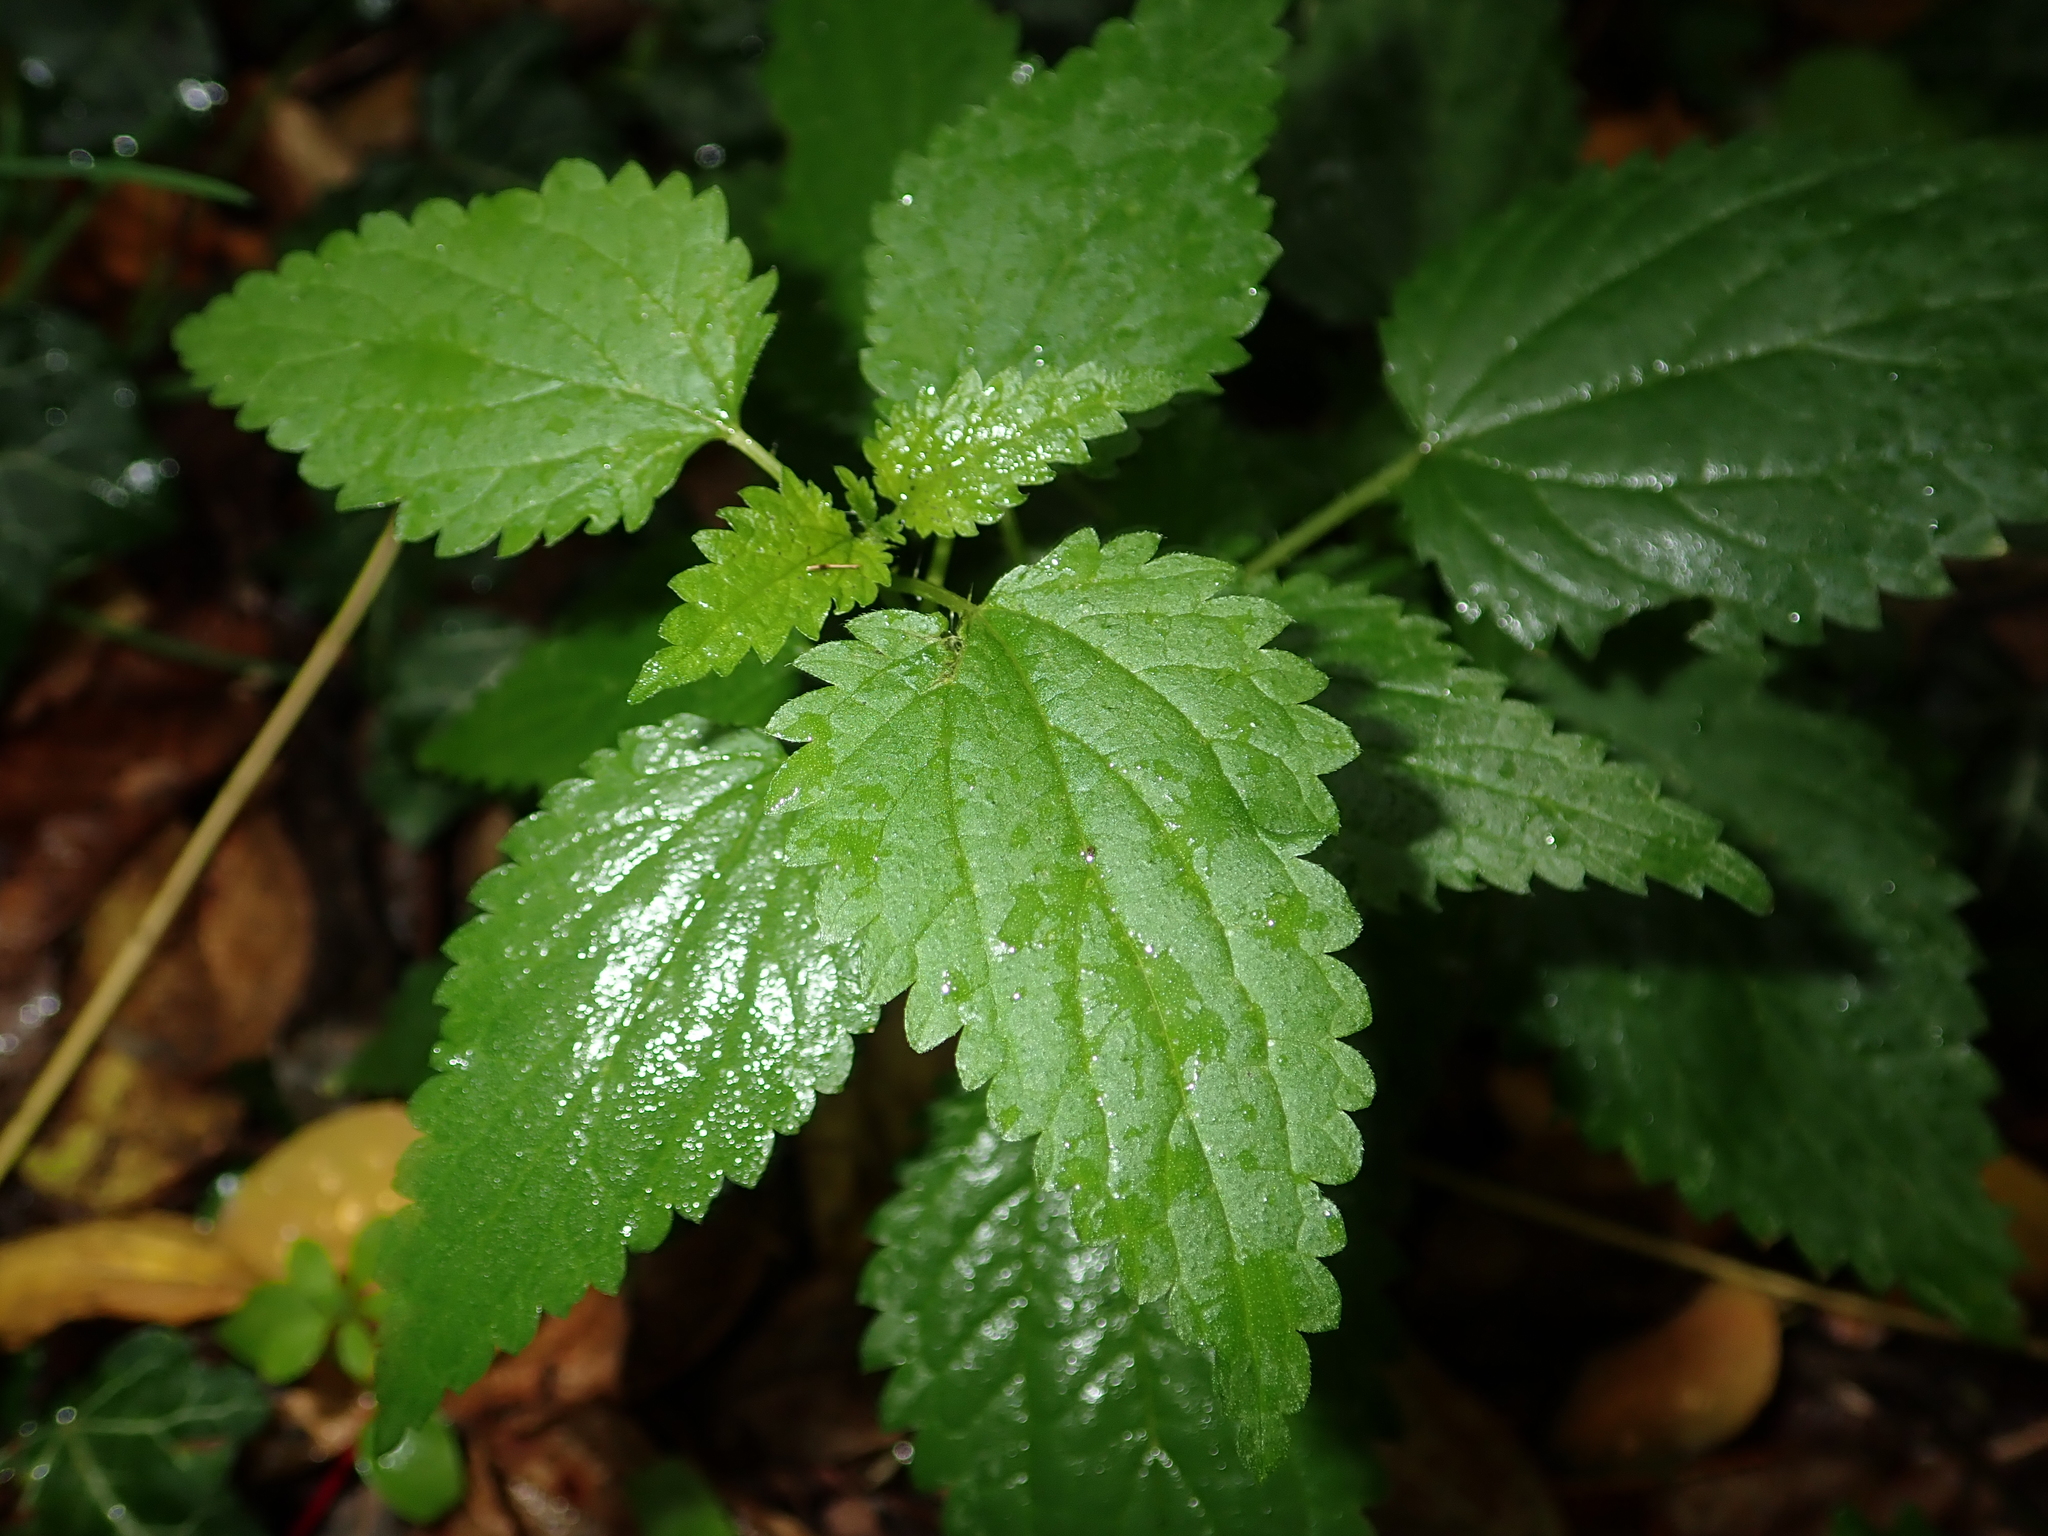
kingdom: Plantae
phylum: Tracheophyta
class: Magnoliopsida
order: Rosales
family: Urticaceae
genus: Urtica
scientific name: Urtica dioica
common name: Common nettle
